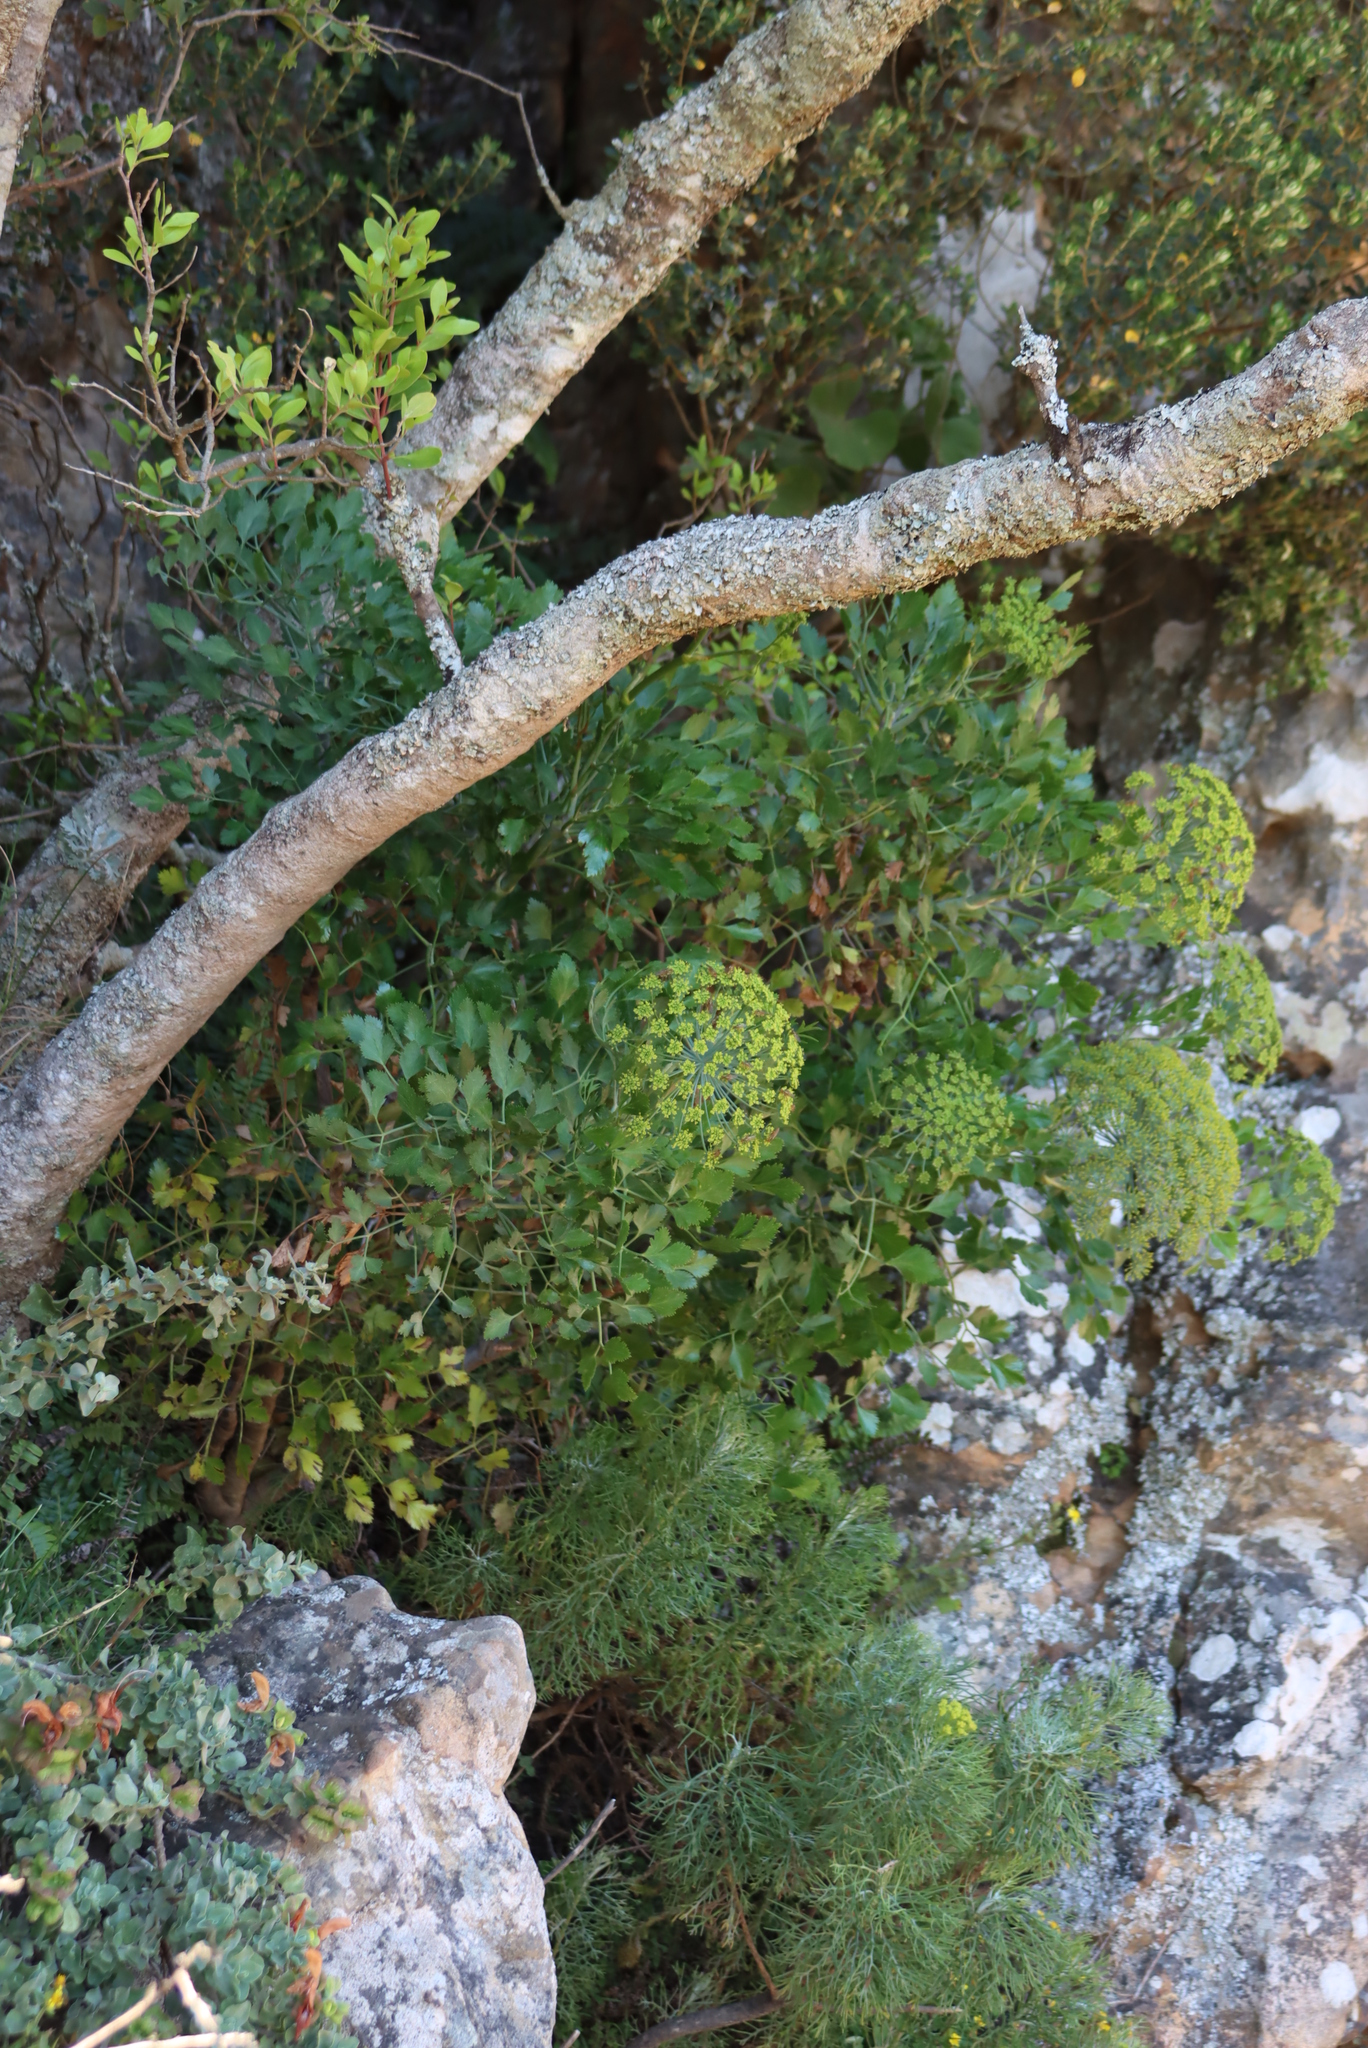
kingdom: Plantae
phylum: Tracheophyta
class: Magnoliopsida
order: Apiales
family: Apiaceae
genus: Notobubon
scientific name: Notobubon galbanum
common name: Blisterbush
